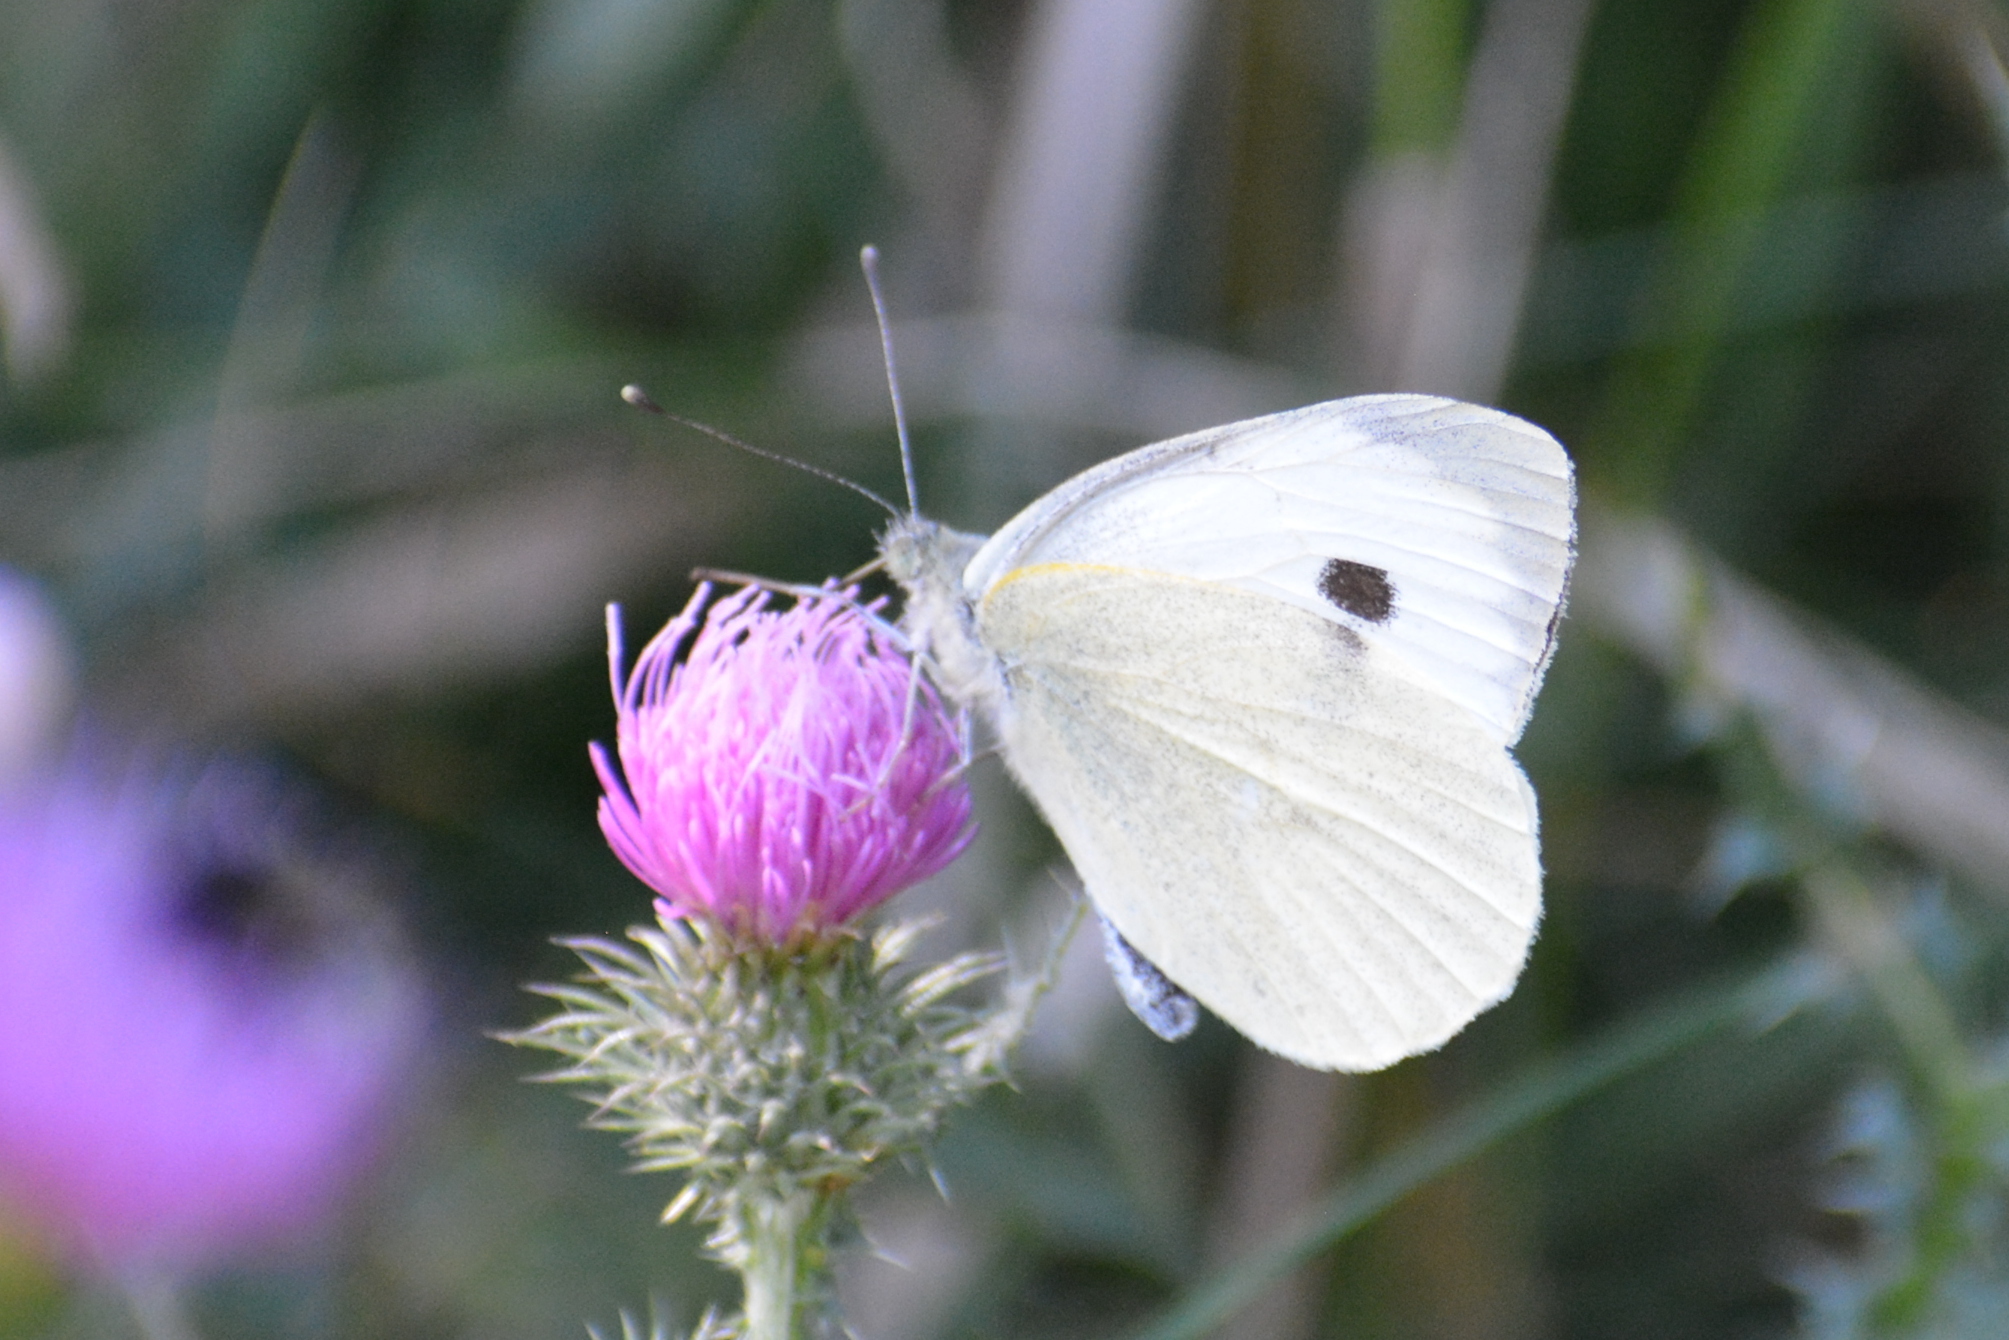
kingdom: Animalia
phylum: Arthropoda
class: Insecta
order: Lepidoptera
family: Pieridae
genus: Pieris
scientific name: Pieris brassicae
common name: Large white
